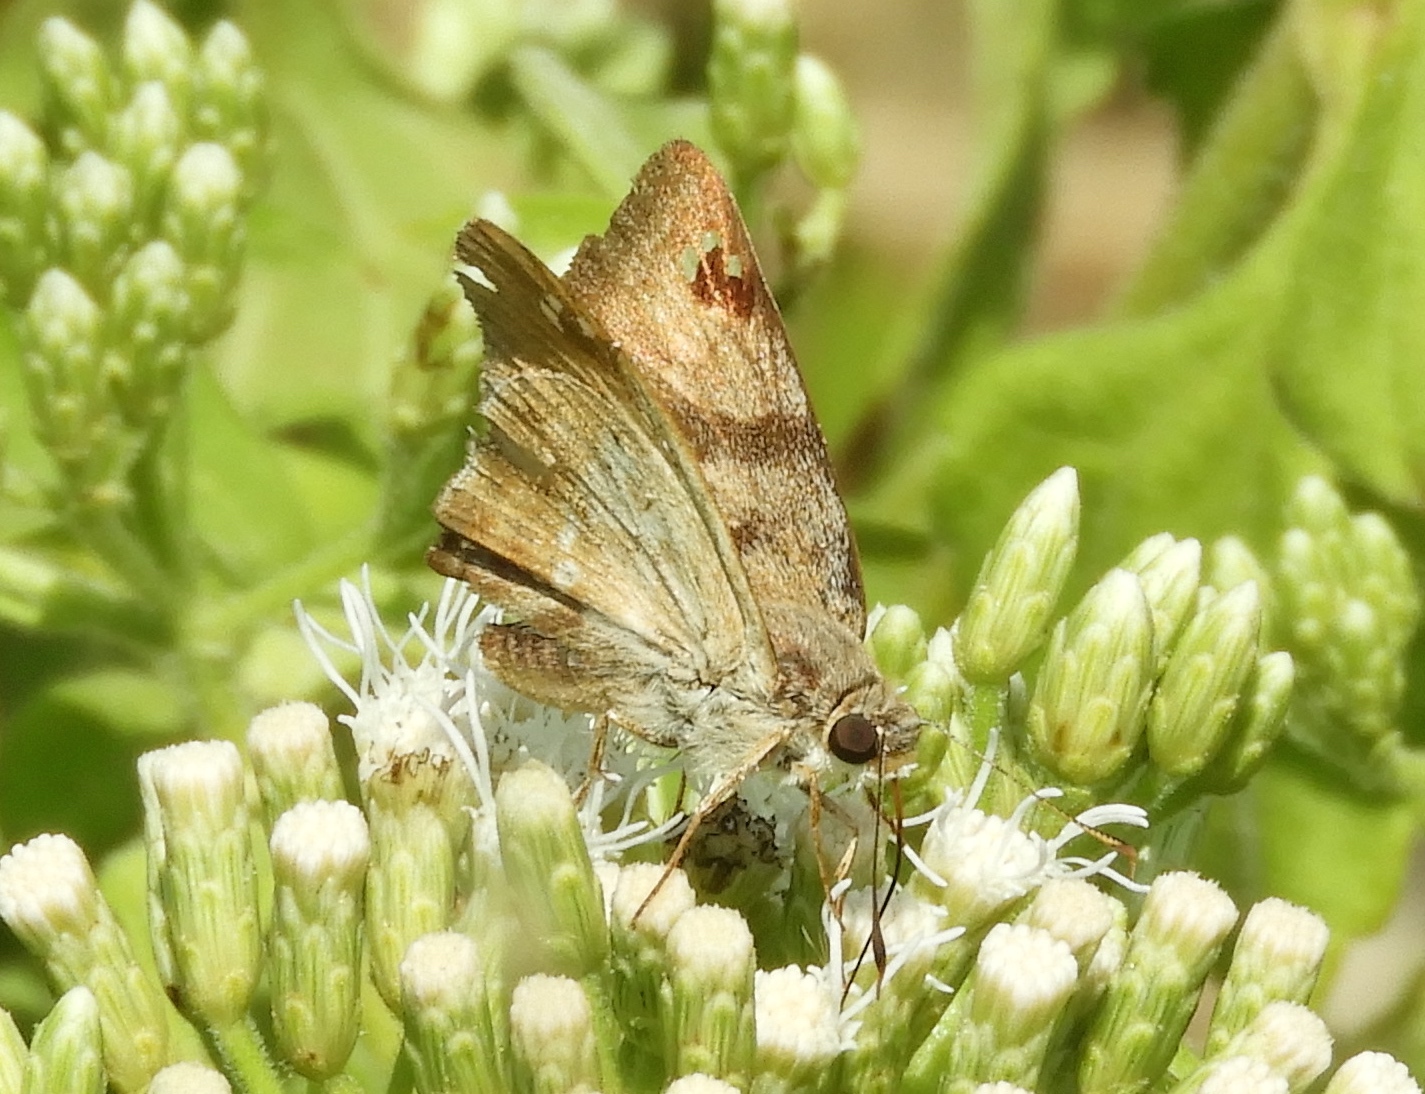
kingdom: Animalia
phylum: Arthropoda
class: Insecta
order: Lepidoptera
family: Hesperiidae
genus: Arteurotia
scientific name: Arteurotia tractipennis
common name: Starred skipper
